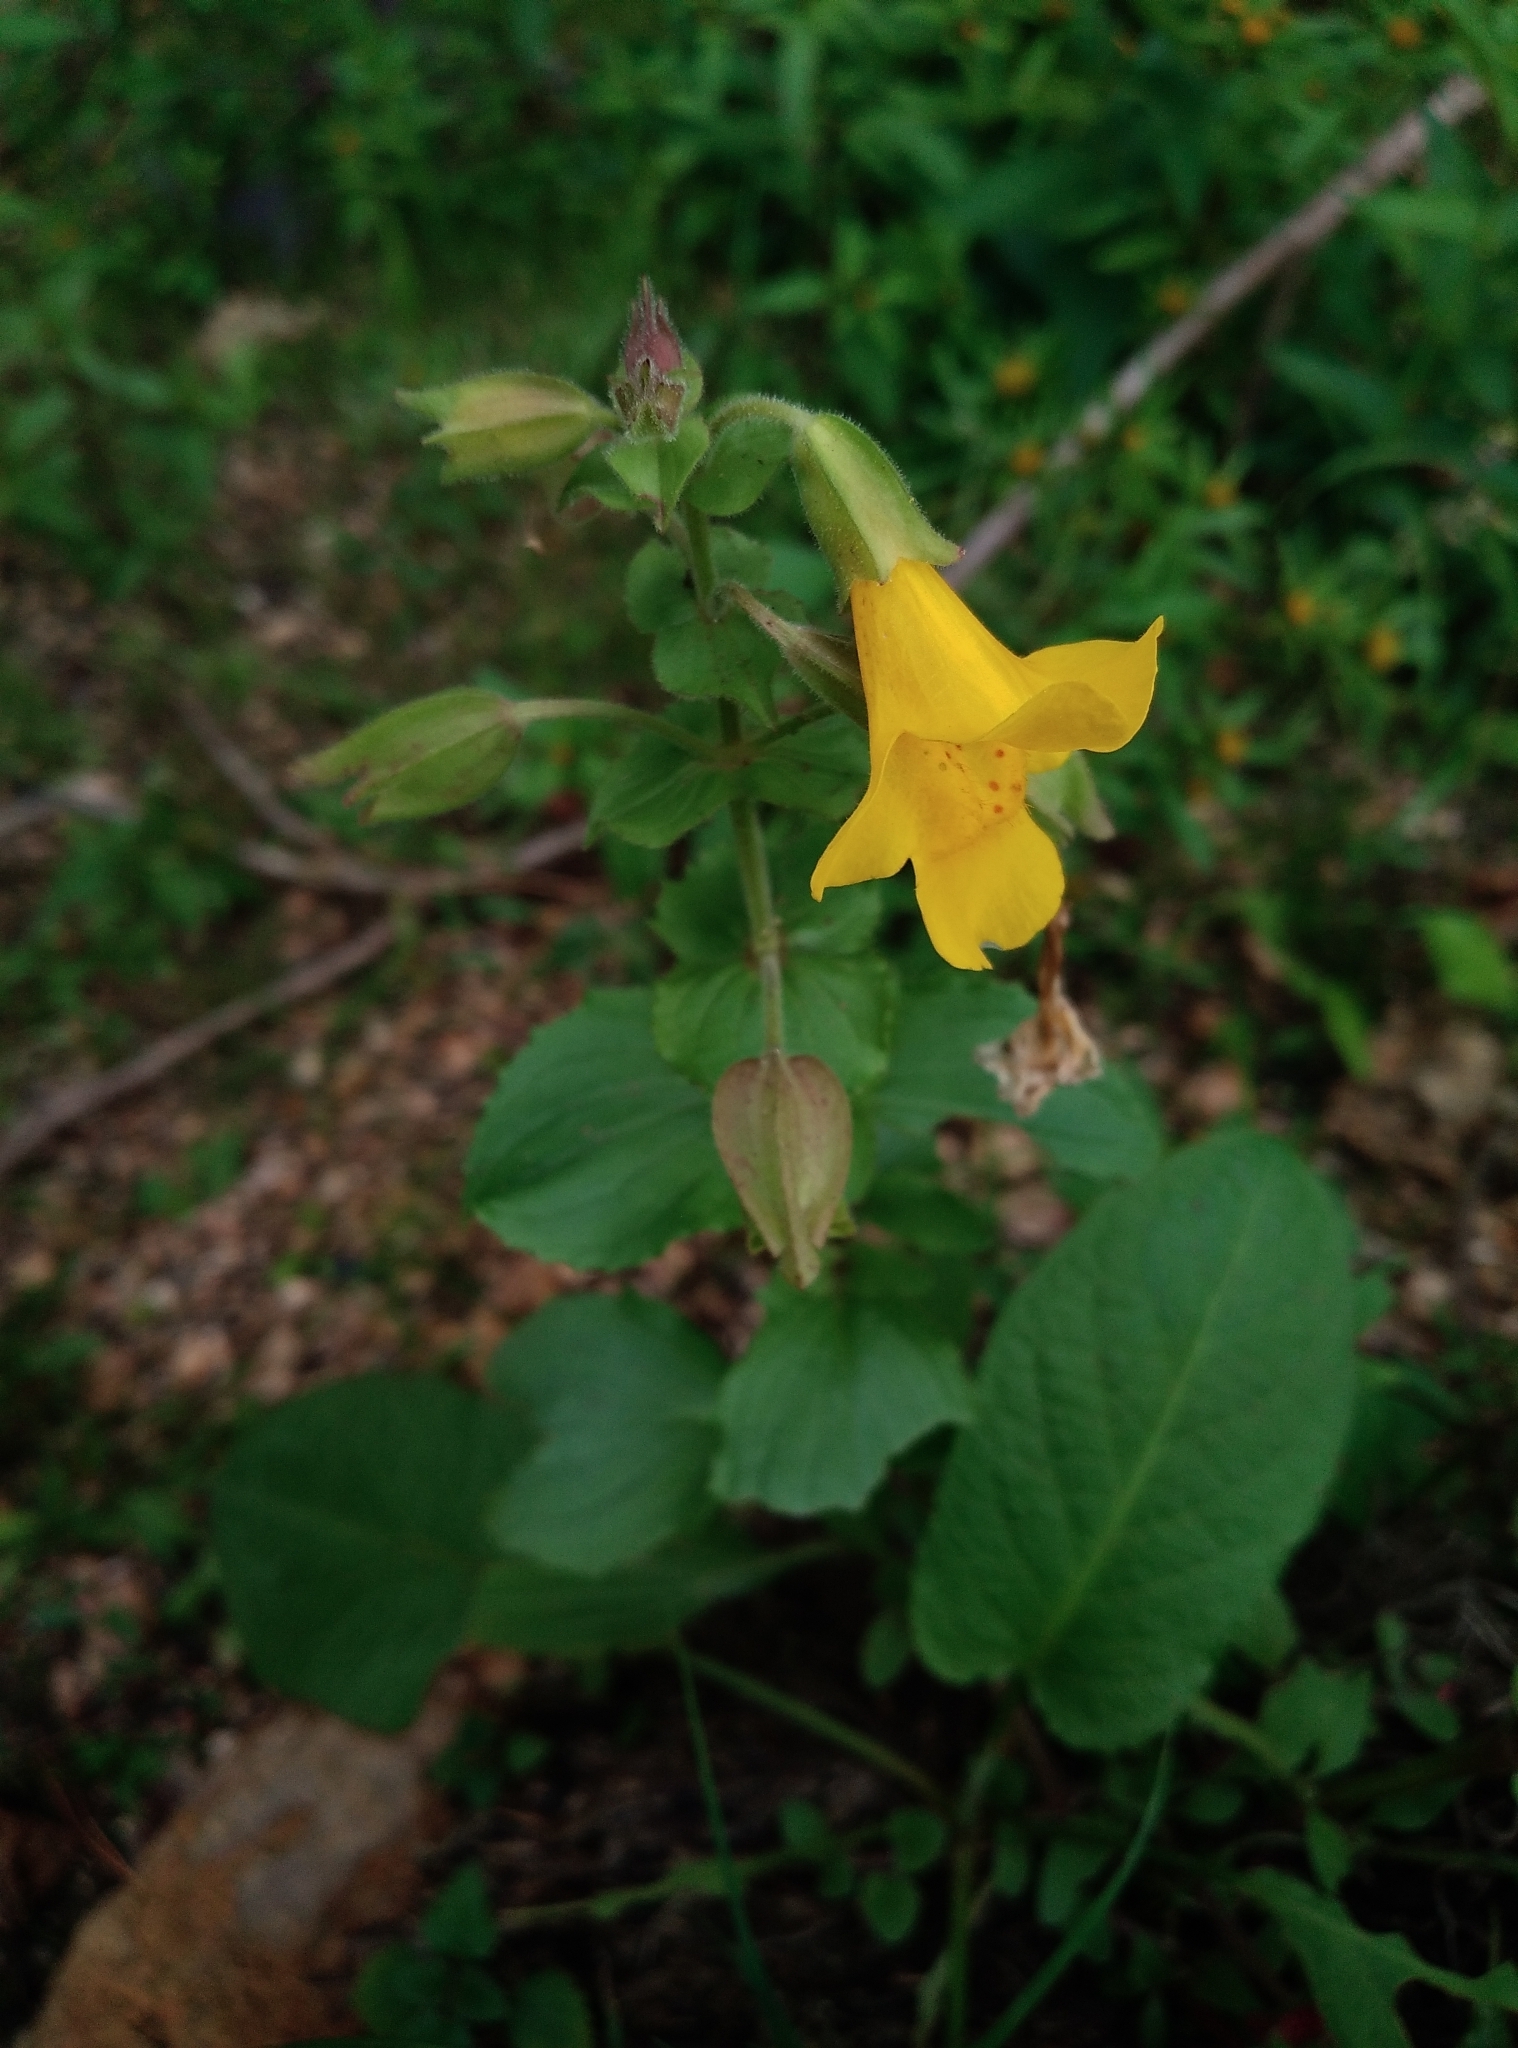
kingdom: Plantae
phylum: Tracheophyta
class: Magnoliopsida
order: Lamiales
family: Phrymaceae
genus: Erythranthe
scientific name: Erythranthe guttata
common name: Monkeyflower
